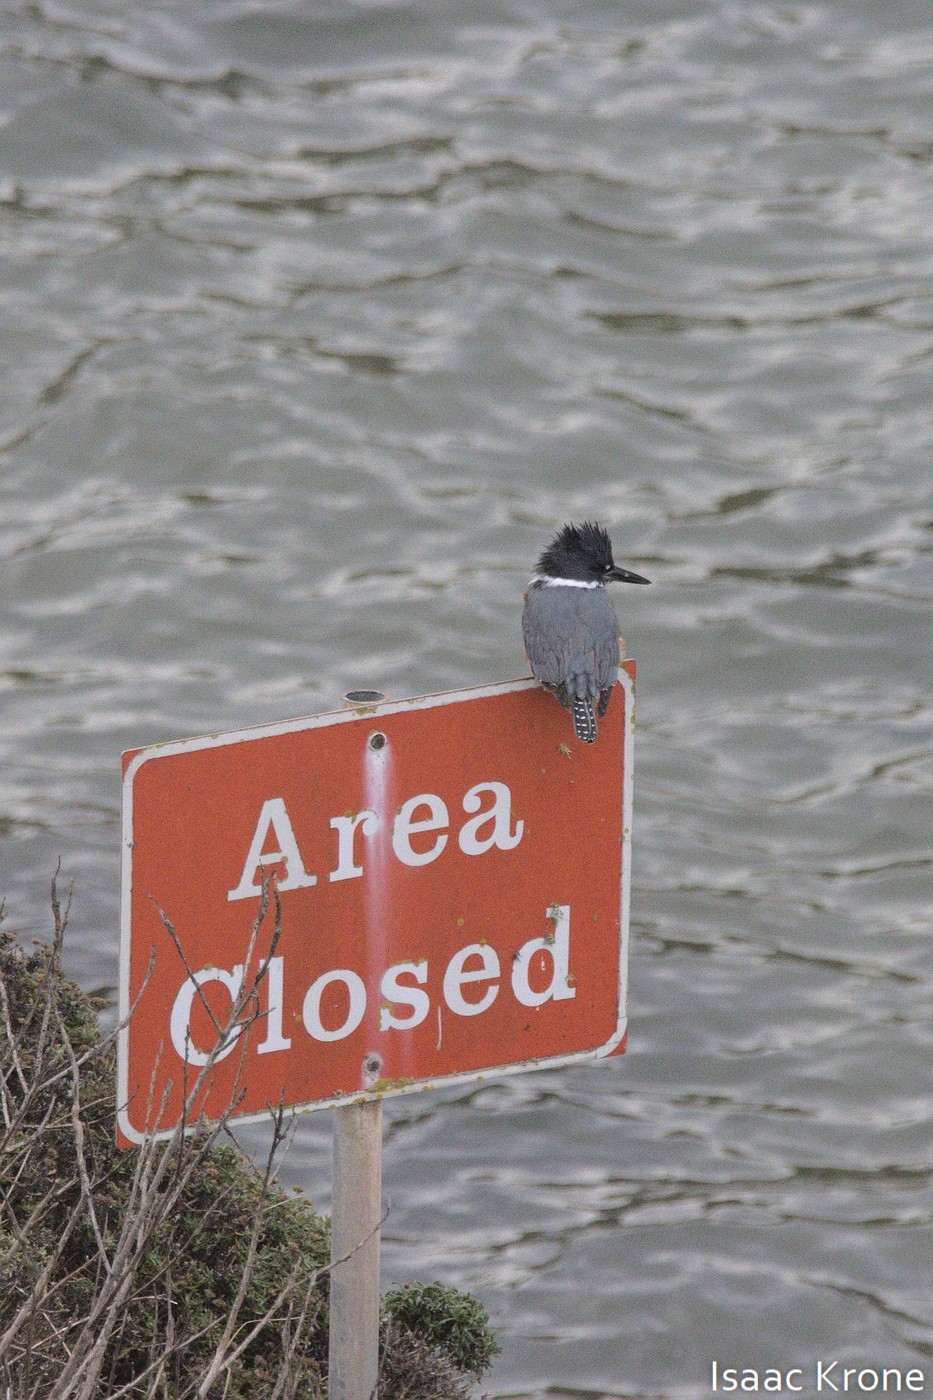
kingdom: Animalia
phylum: Chordata
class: Aves
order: Coraciiformes
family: Alcedinidae
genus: Megaceryle
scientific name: Megaceryle alcyon
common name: Belted kingfisher
